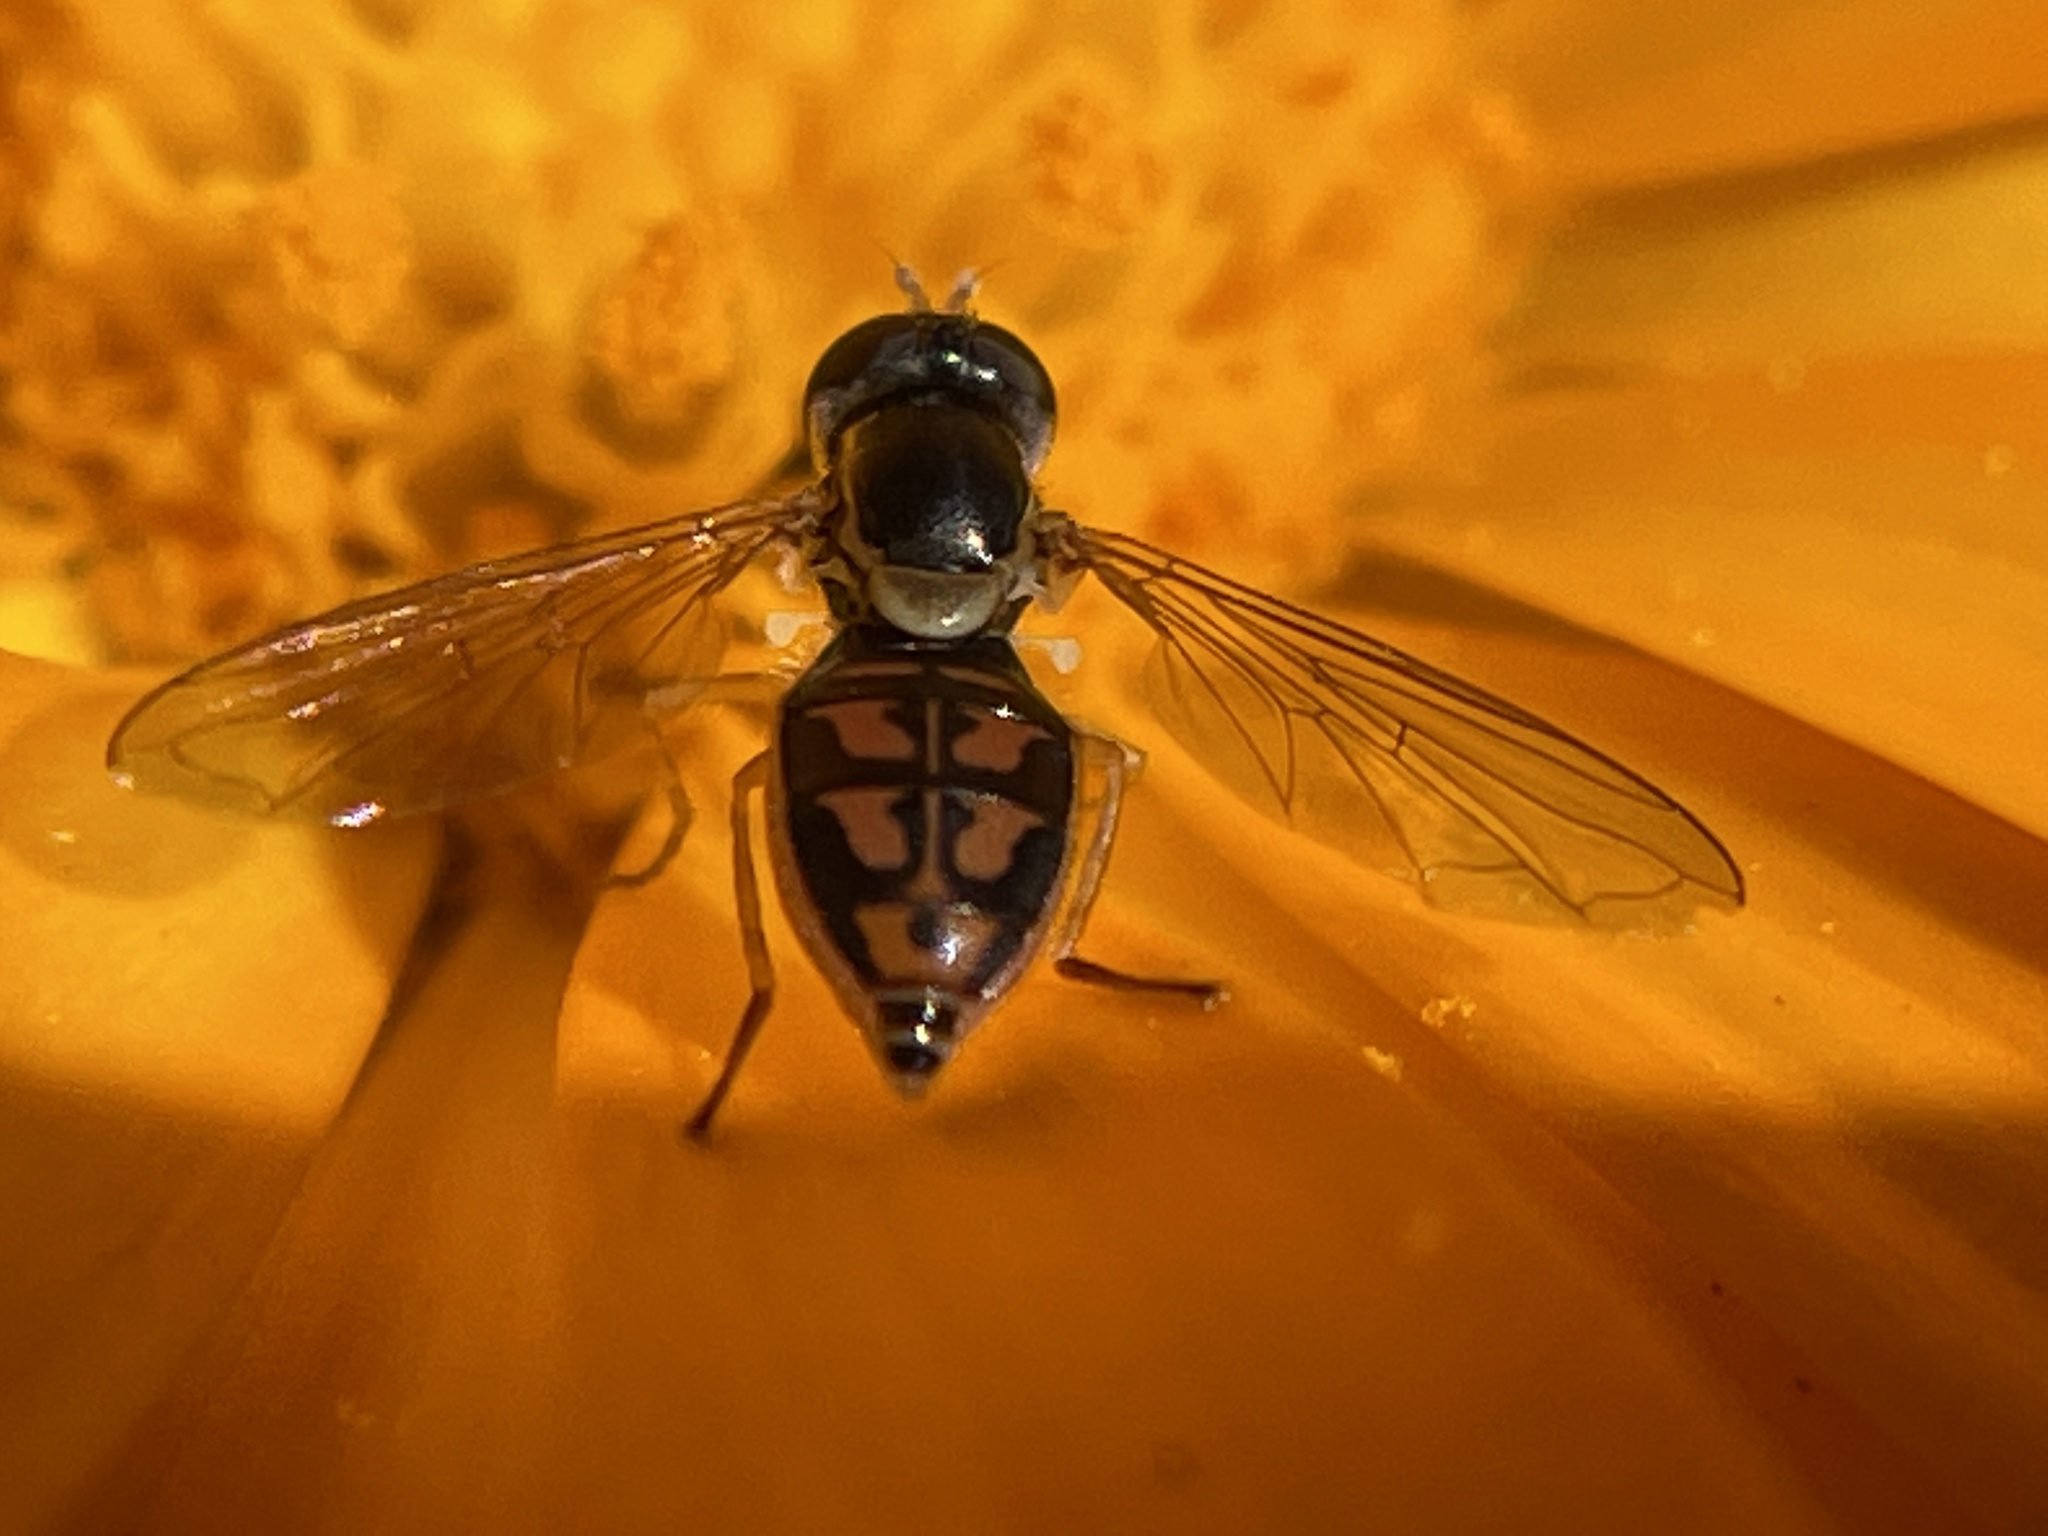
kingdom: Animalia
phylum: Arthropoda
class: Insecta
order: Diptera
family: Syrphidae
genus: Toxomerus
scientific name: Toxomerus marginatus
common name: Syrphid fly
